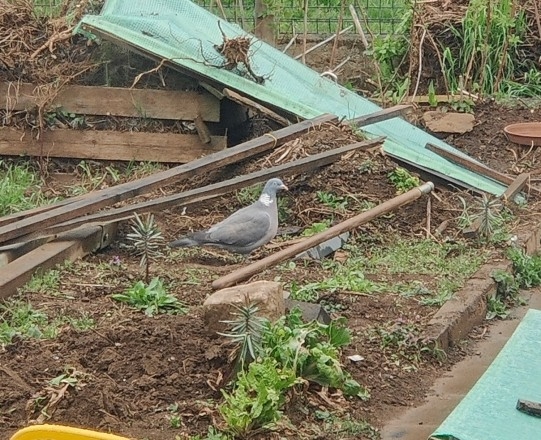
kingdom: Animalia
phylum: Chordata
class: Aves
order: Columbiformes
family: Columbidae
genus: Columba
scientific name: Columba palumbus
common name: Common wood pigeon
